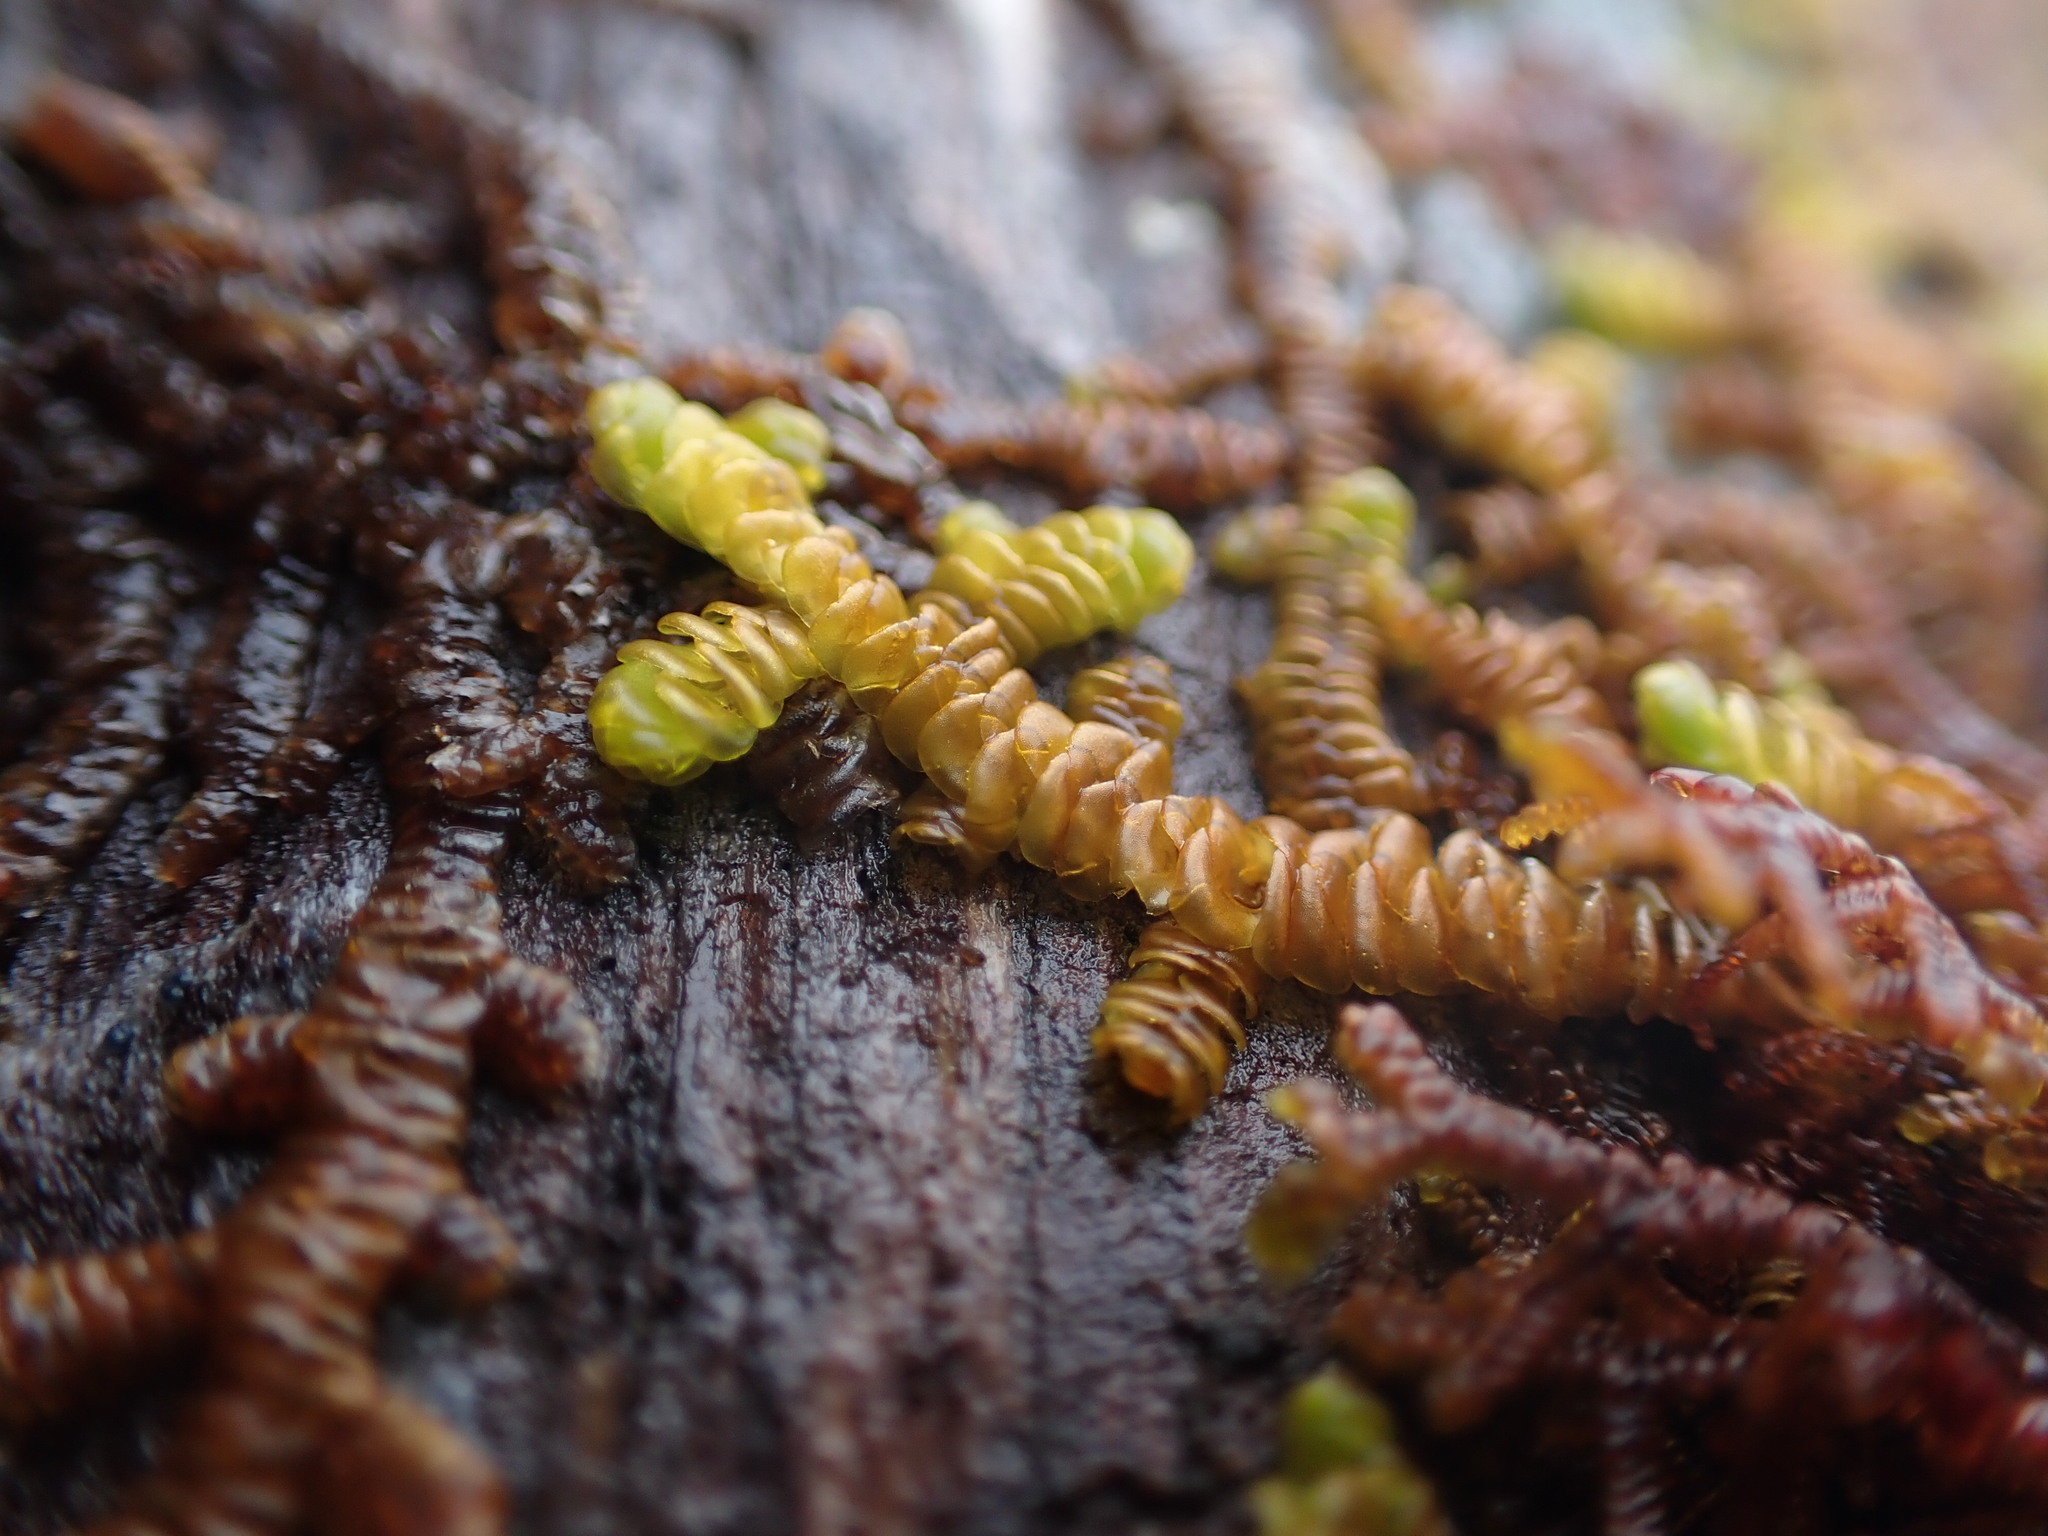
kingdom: Plantae
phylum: Marchantiophyta
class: Jungermanniopsida
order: Porellales
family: Porellaceae
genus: Porella
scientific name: Porella navicularis
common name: Tree ruffle liverwort
